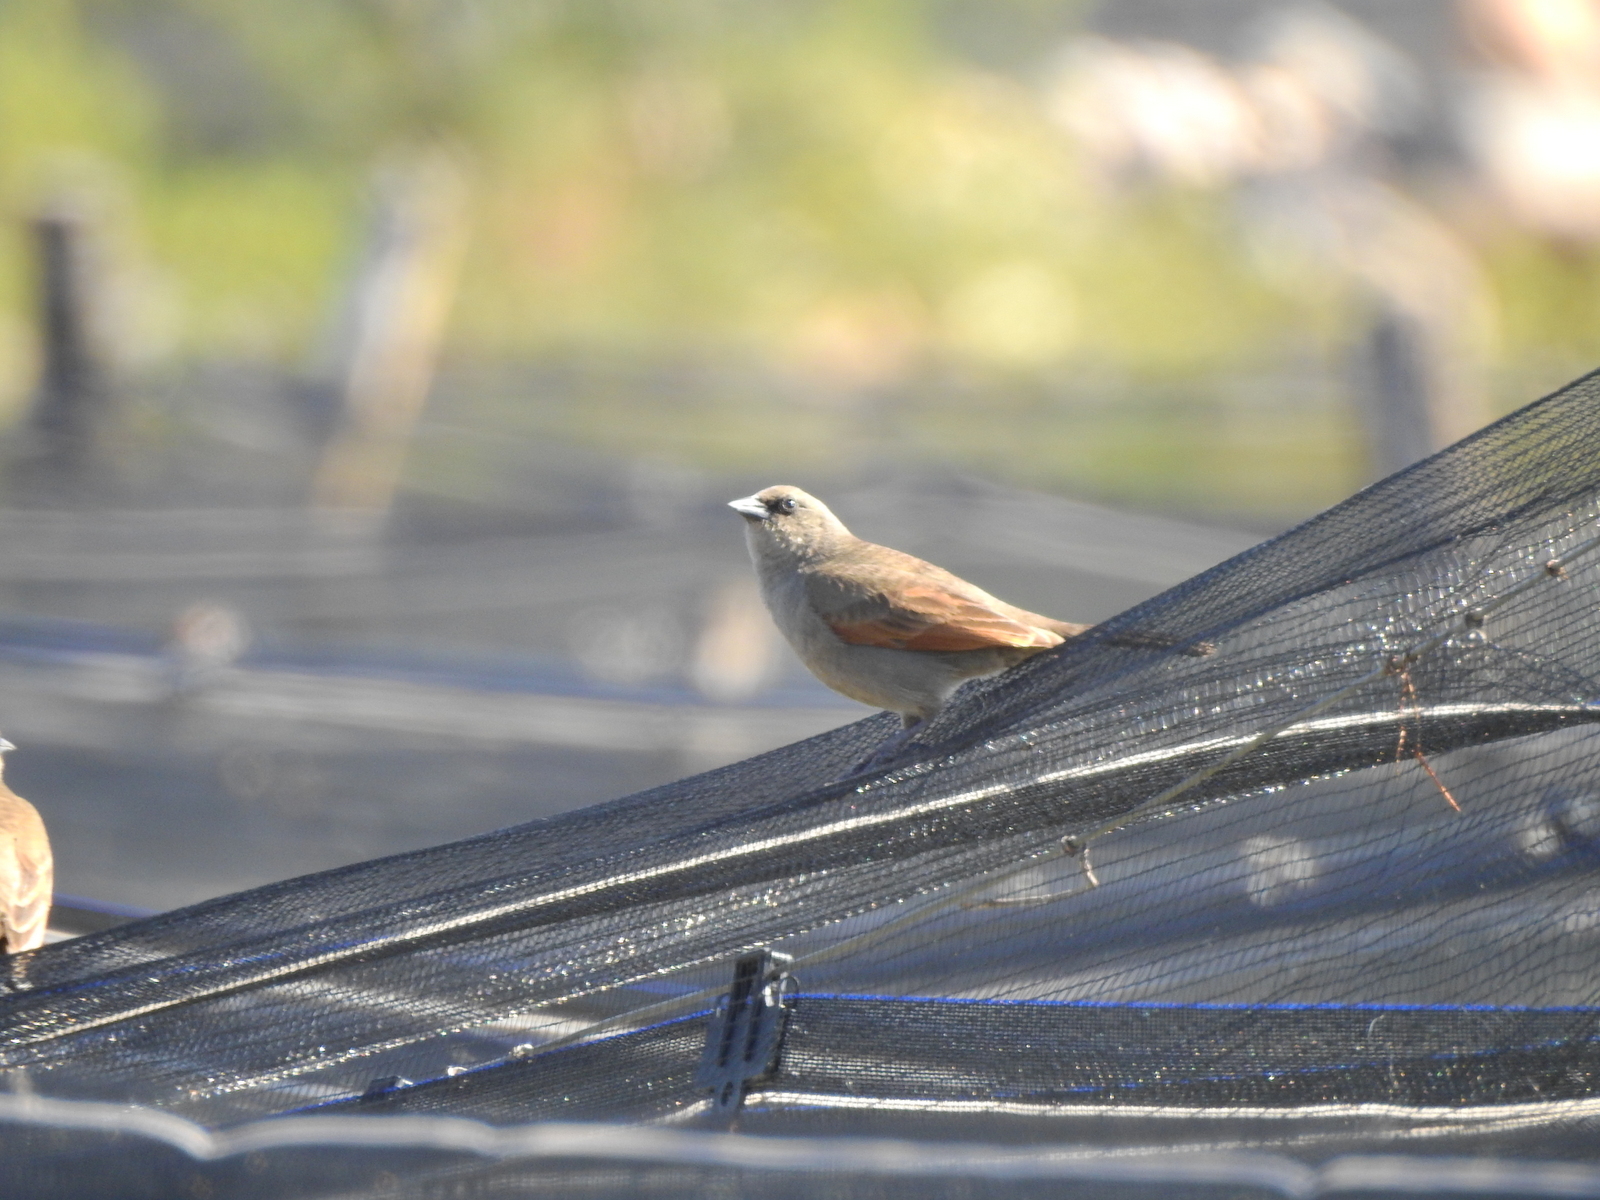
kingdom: Animalia
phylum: Chordata
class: Aves
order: Passeriformes
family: Icteridae
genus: Agelaioides
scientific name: Agelaioides badius
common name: Baywing
